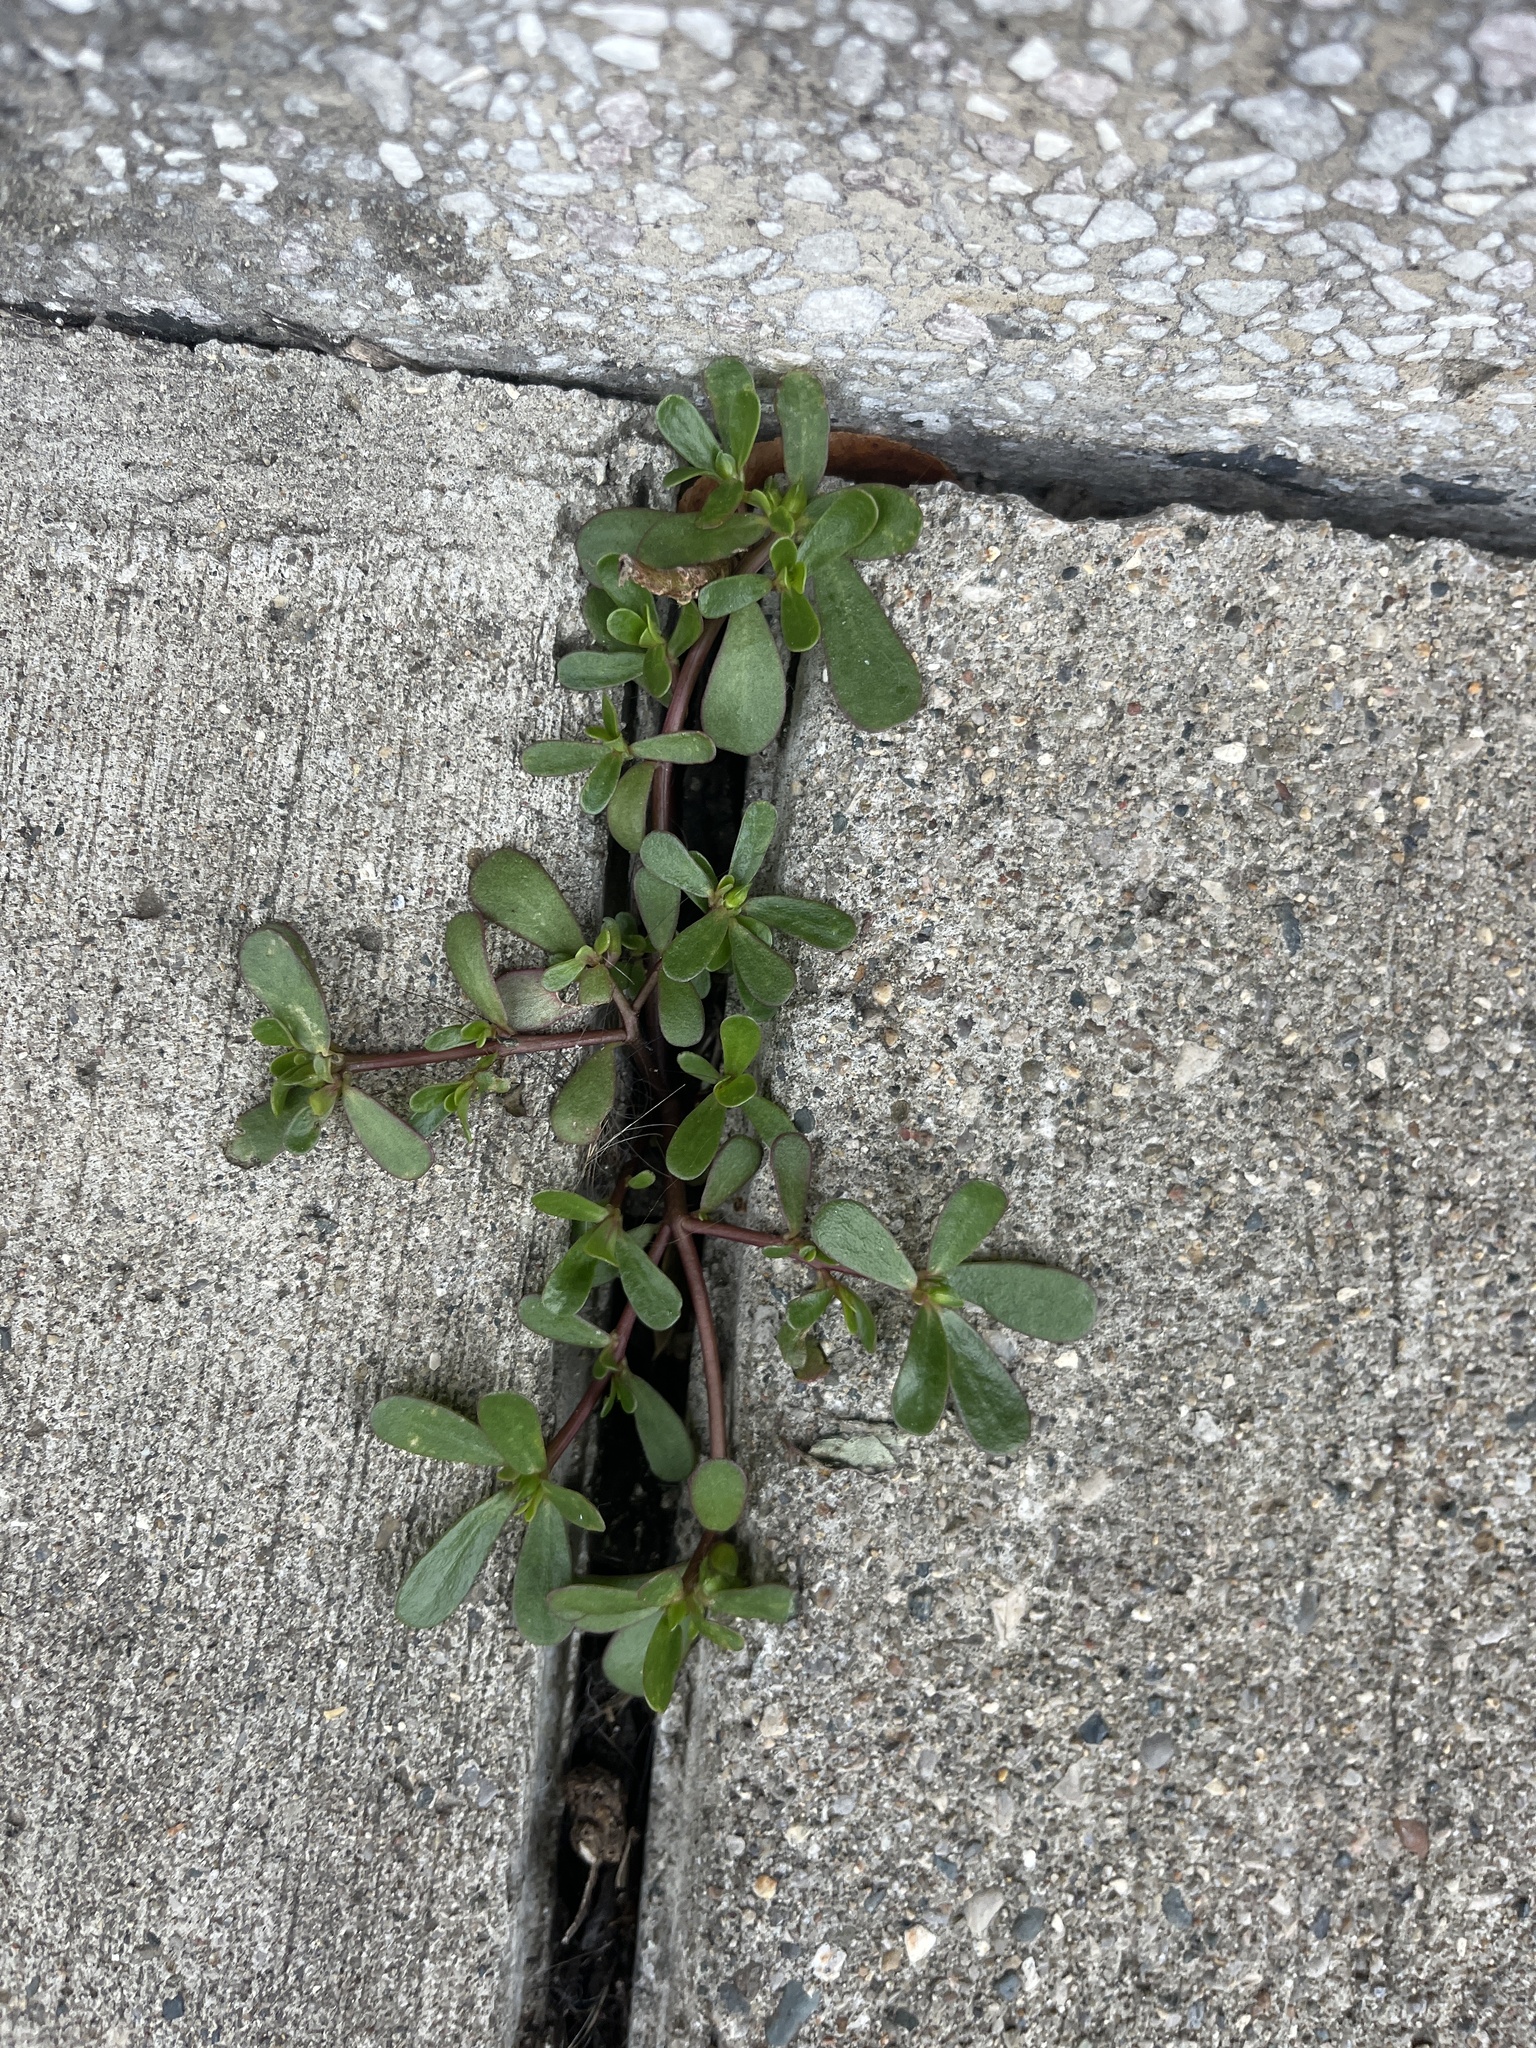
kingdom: Plantae
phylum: Tracheophyta
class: Magnoliopsida
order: Caryophyllales
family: Portulacaceae
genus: Portulaca
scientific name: Portulaca oleracea
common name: Common purslane
